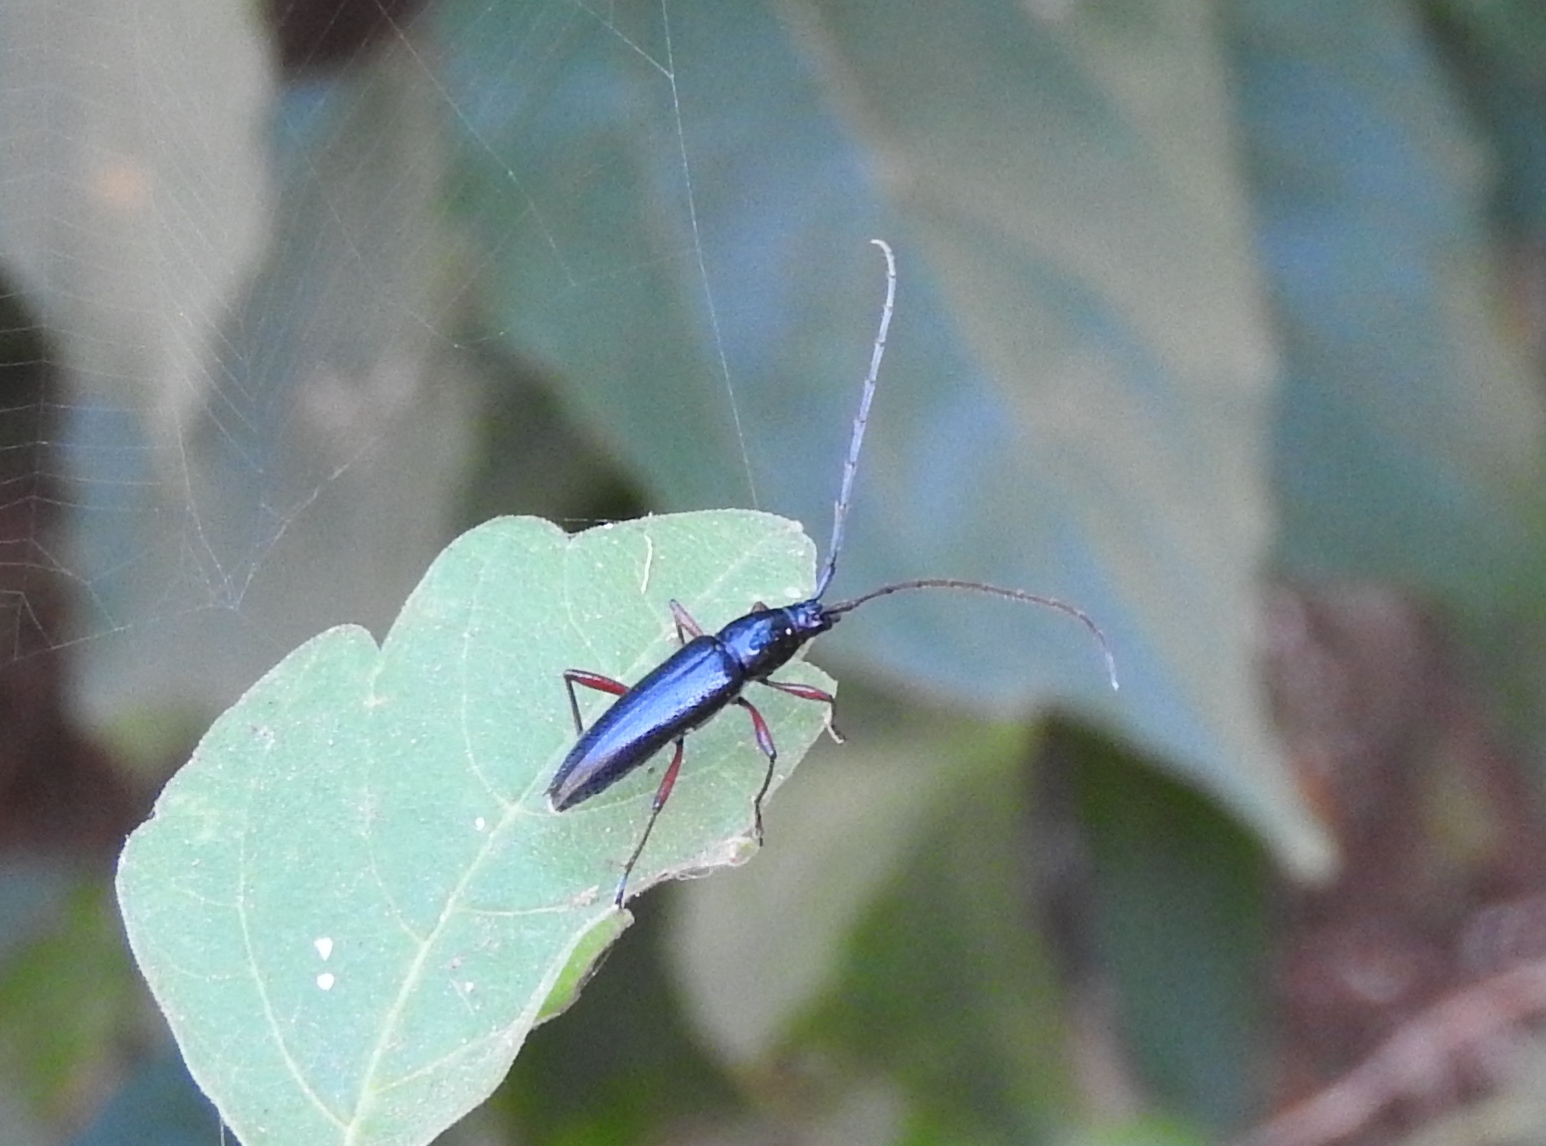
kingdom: Animalia
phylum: Arthropoda
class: Insecta
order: Coleoptera
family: Cerambycidae
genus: Stenosphenus
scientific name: Stenosphenus
